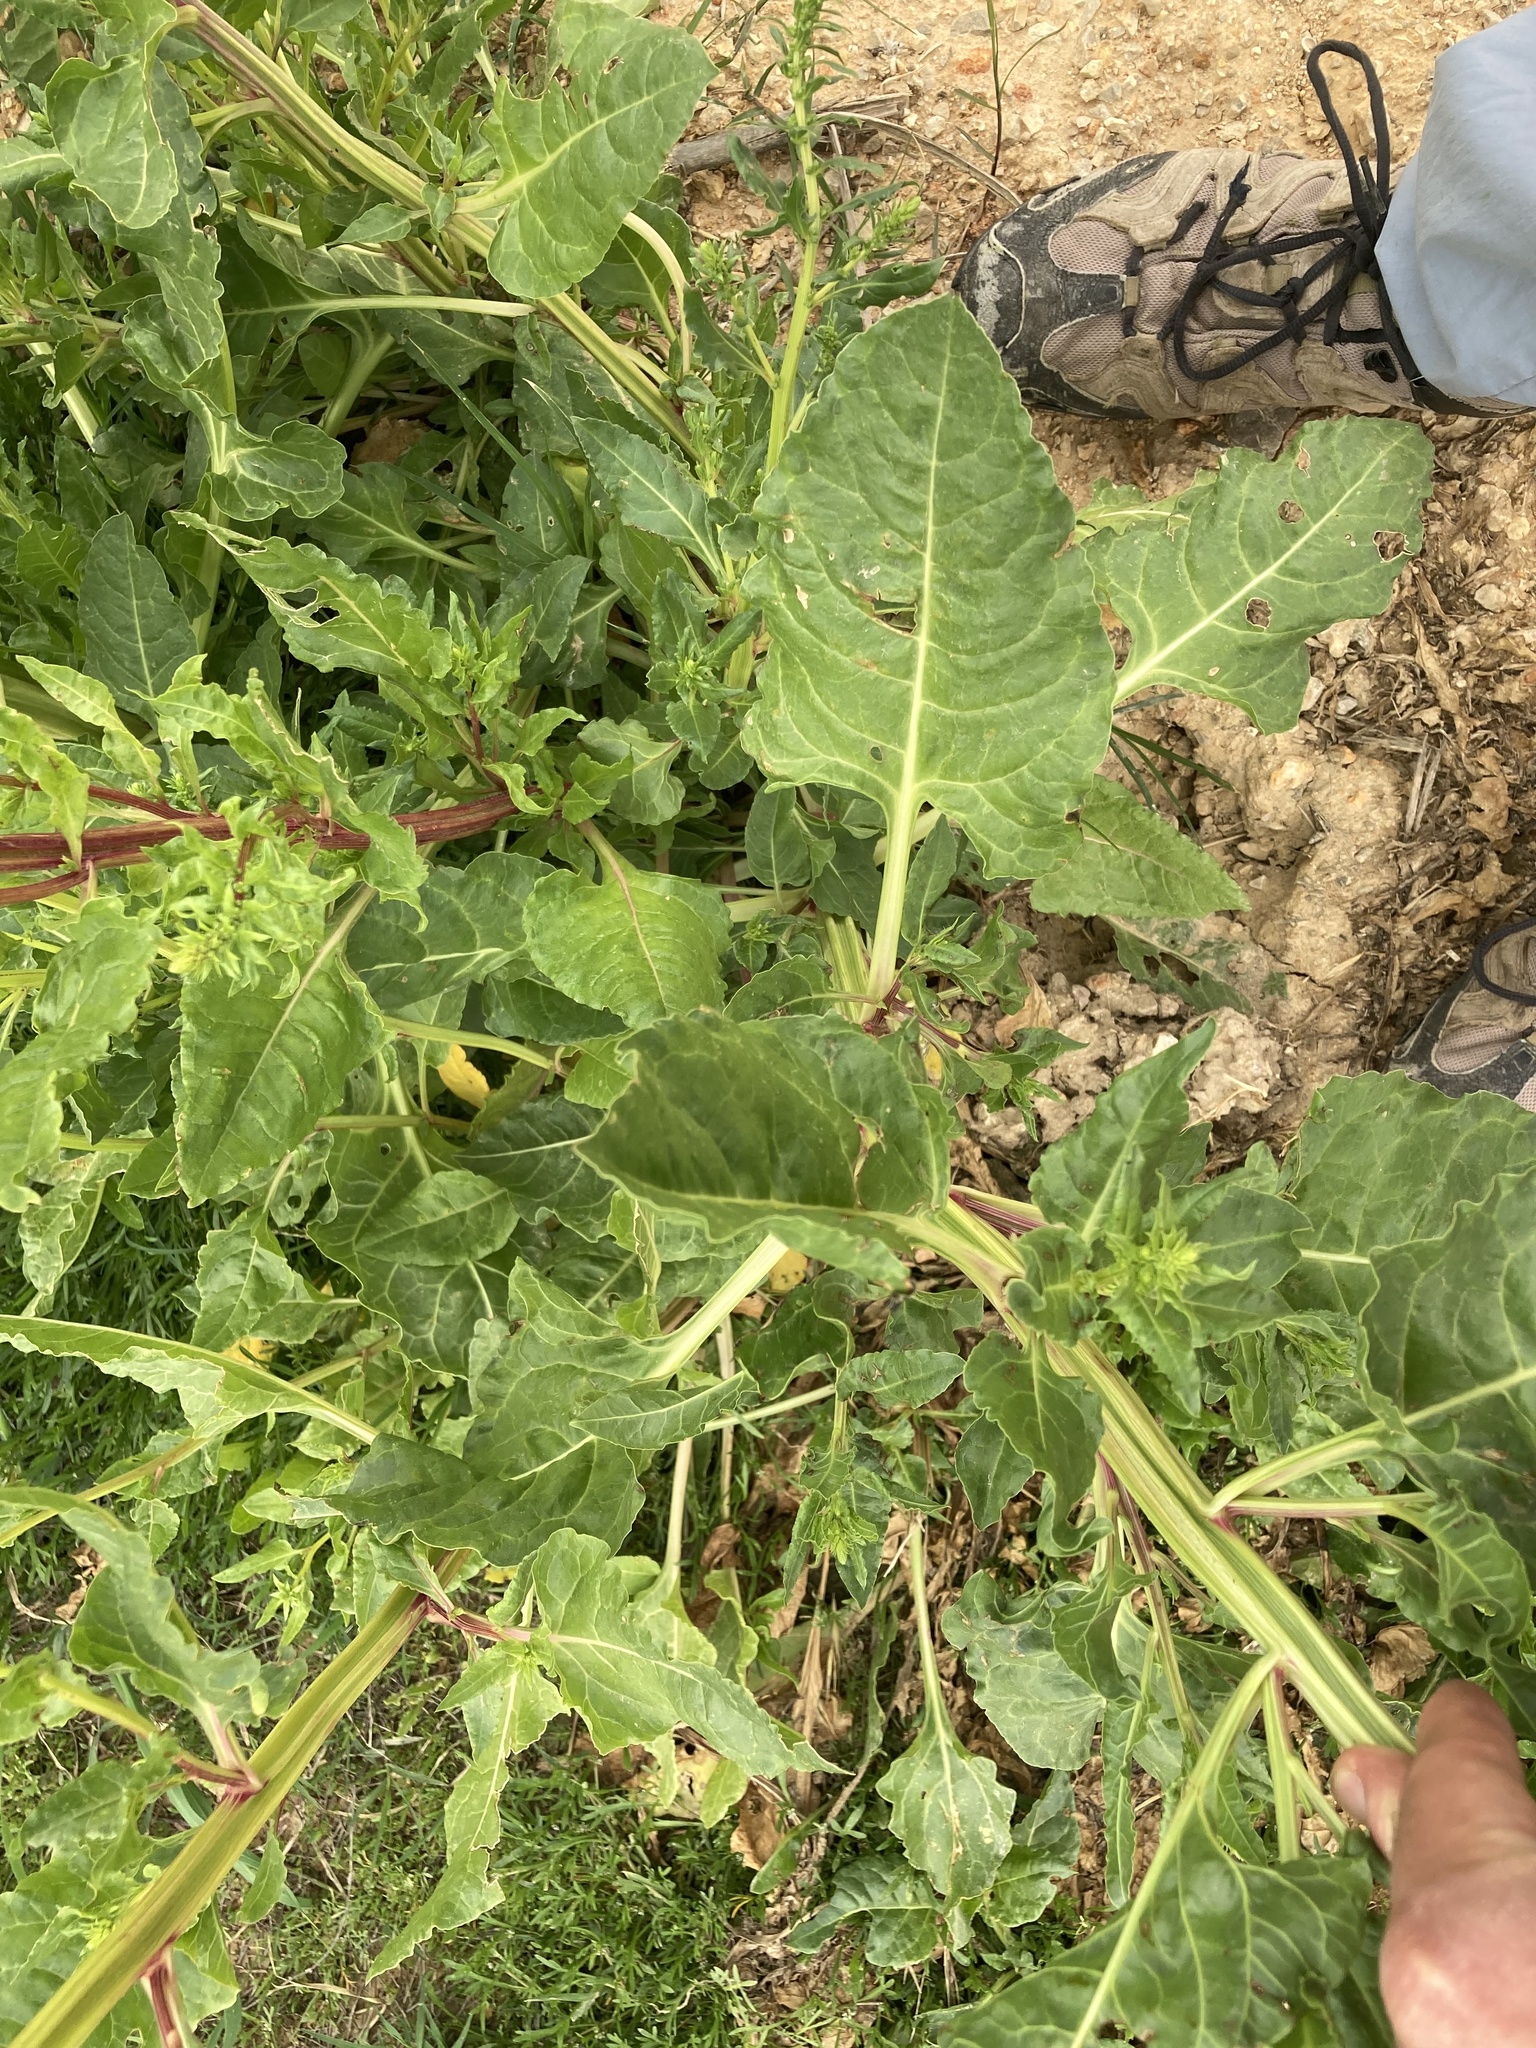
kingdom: Plantae
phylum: Tracheophyta
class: Magnoliopsida
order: Caryophyllales
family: Amaranthaceae
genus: Beta
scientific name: Beta vulgaris
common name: Beet
